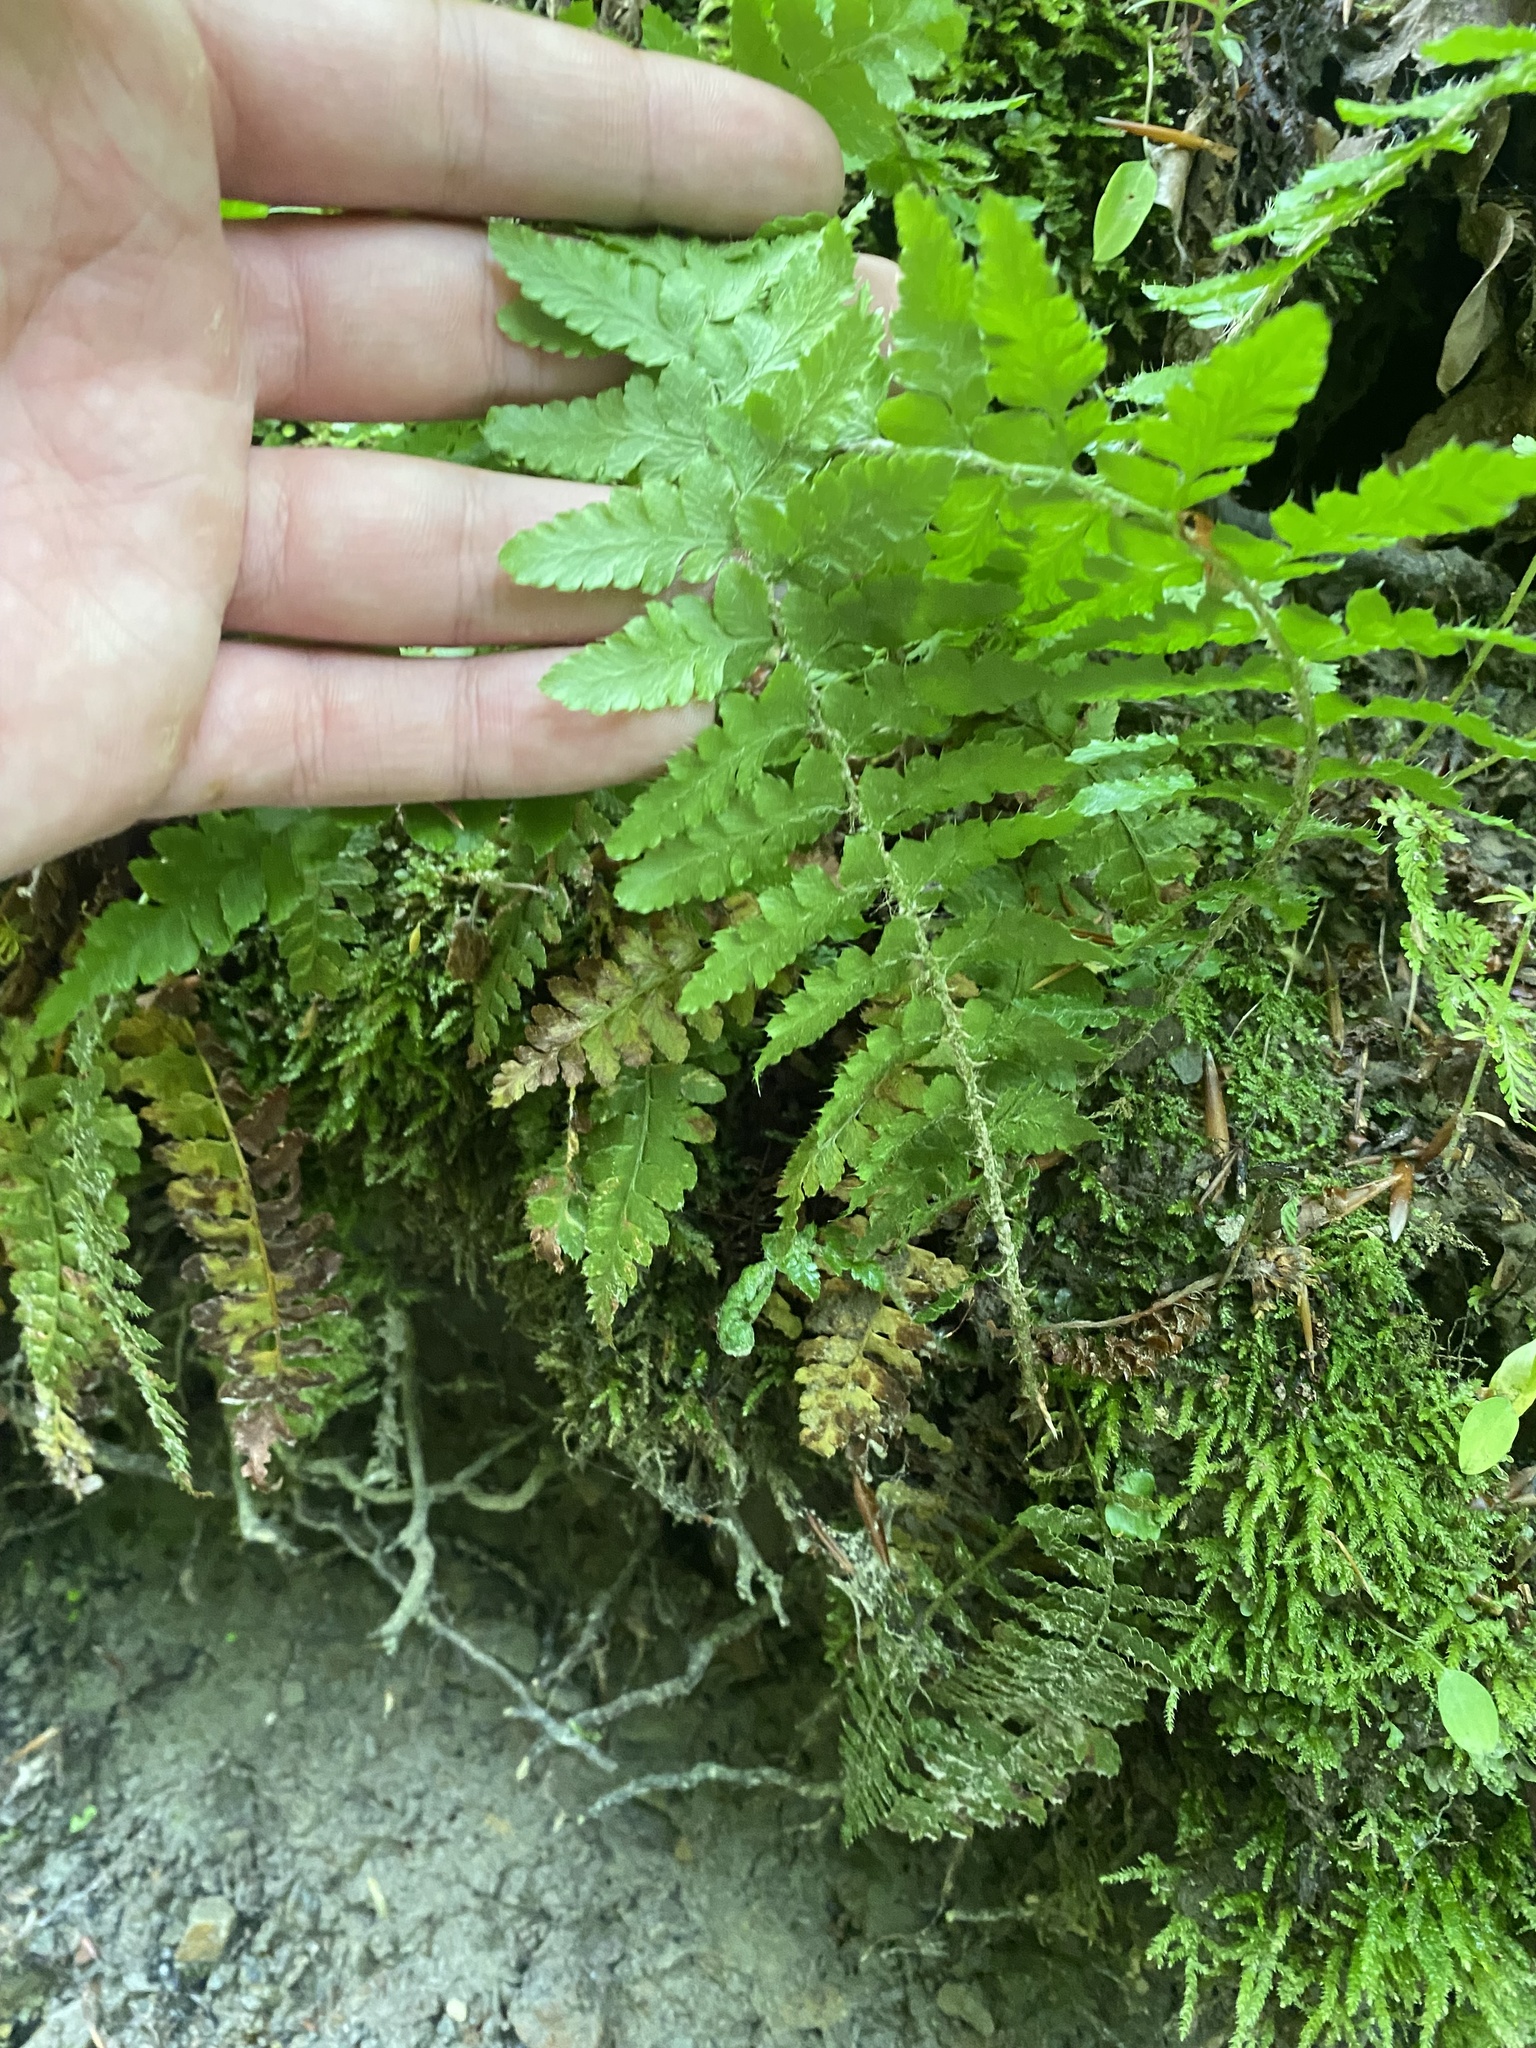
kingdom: Plantae
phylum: Tracheophyta
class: Polypodiopsida
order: Polypodiales
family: Dryopteridaceae
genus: Polystichum
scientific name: Polystichum braunii
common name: Braun's holly fern
